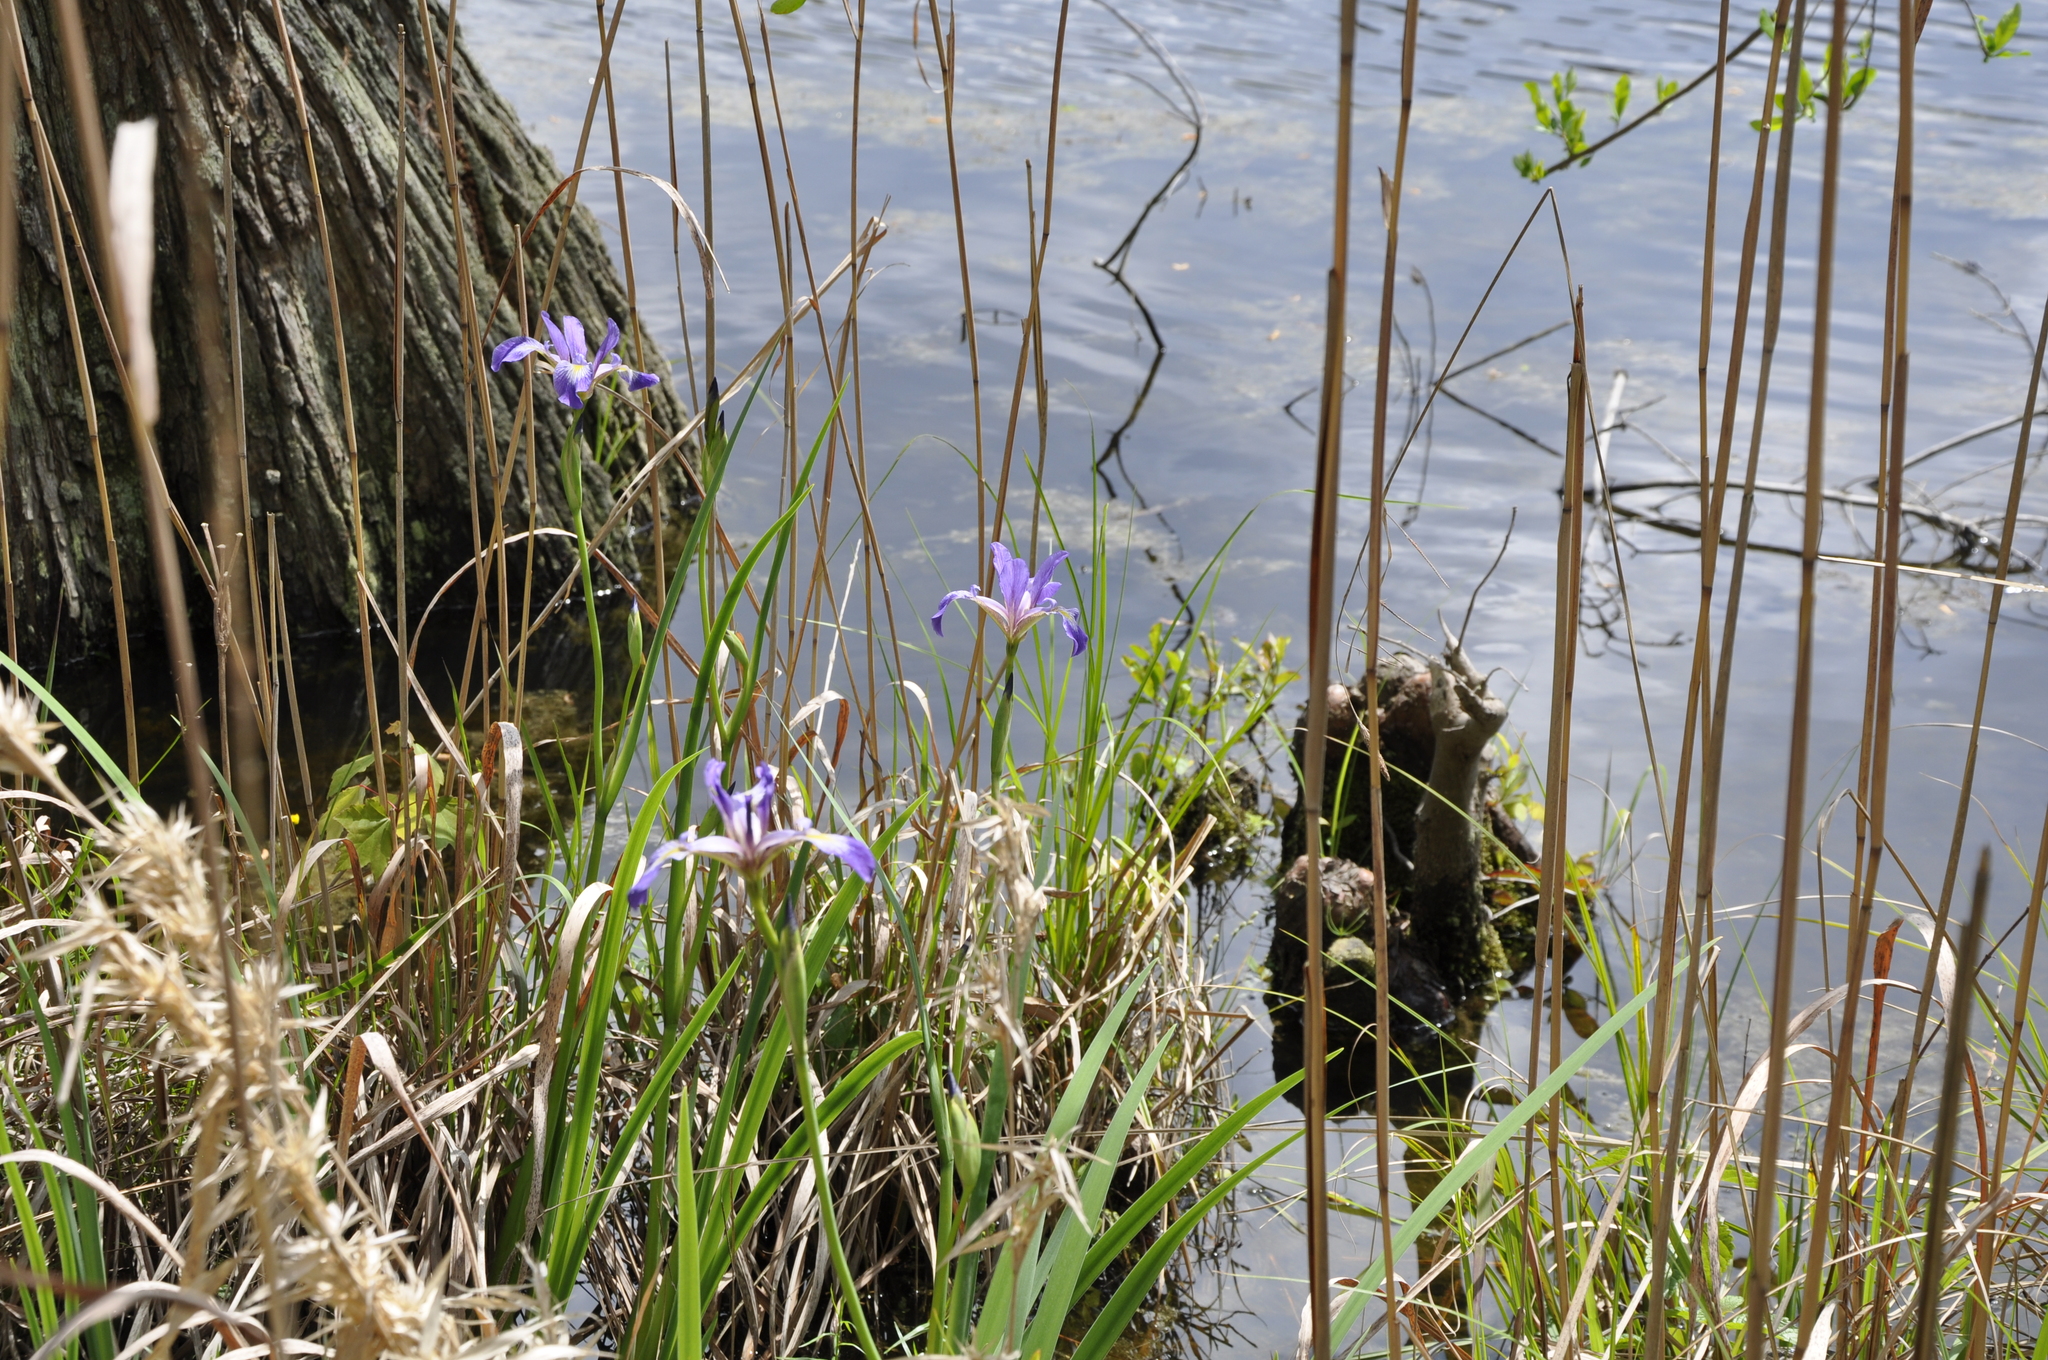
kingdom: Plantae
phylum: Tracheophyta
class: Liliopsida
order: Asparagales
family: Iridaceae
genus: Iris
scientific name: Iris virginica
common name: Southern blue flag
